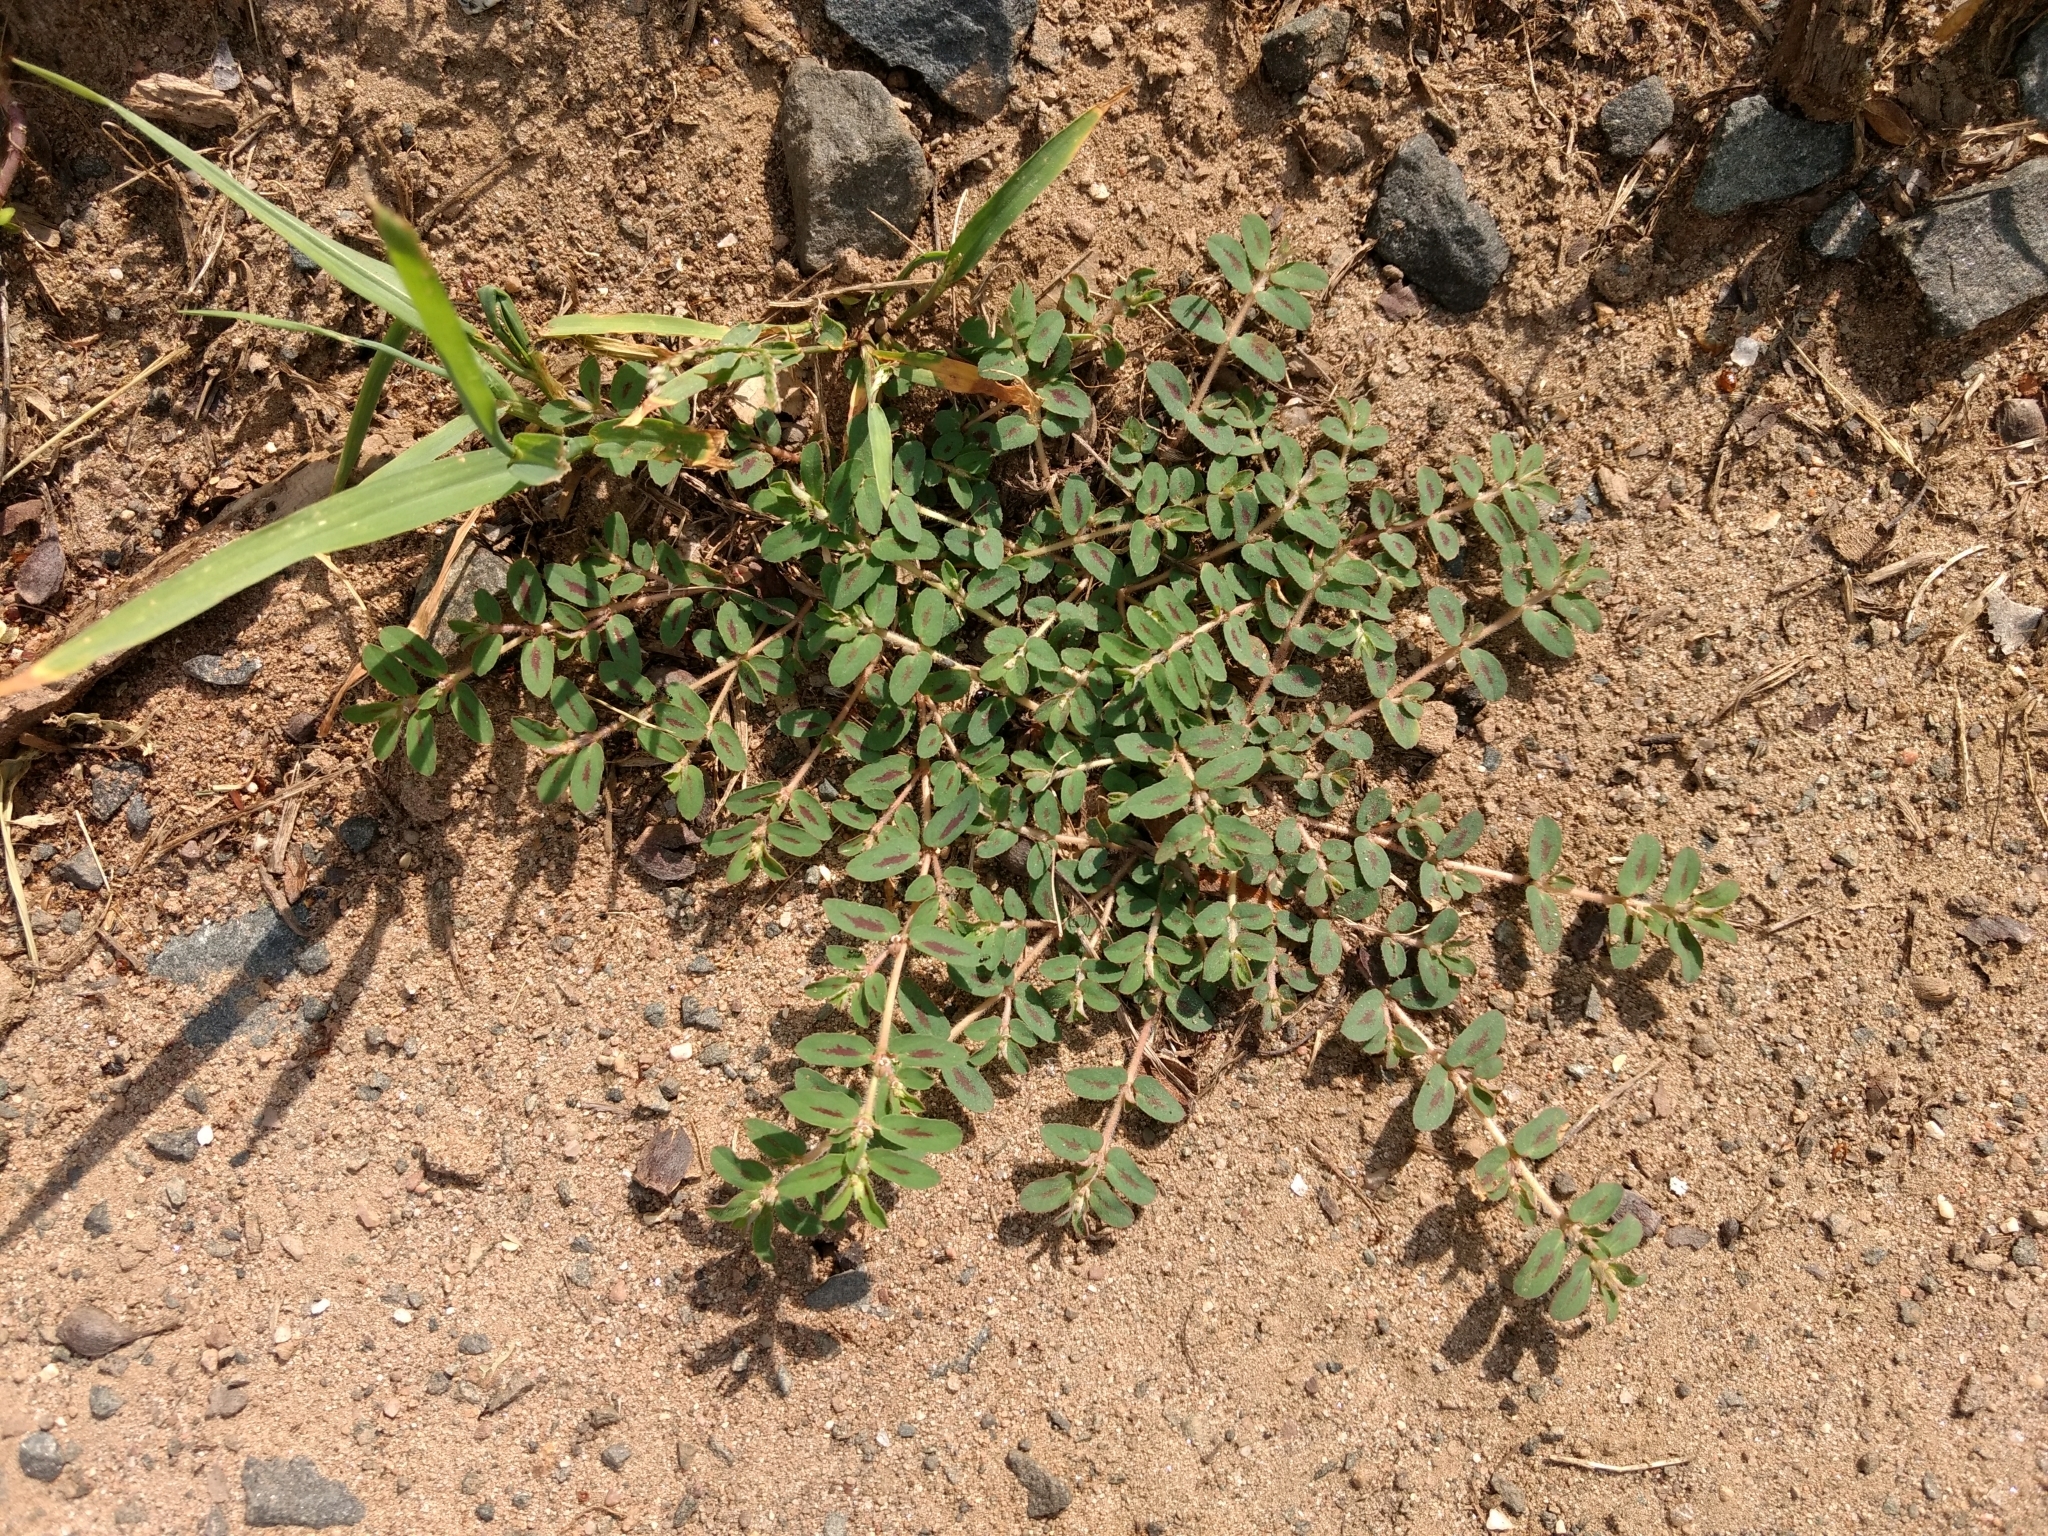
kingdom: Plantae
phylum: Tracheophyta
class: Magnoliopsida
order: Malpighiales
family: Euphorbiaceae
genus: Euphorbia
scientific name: Euphorbia maculata
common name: Spotted spurge
